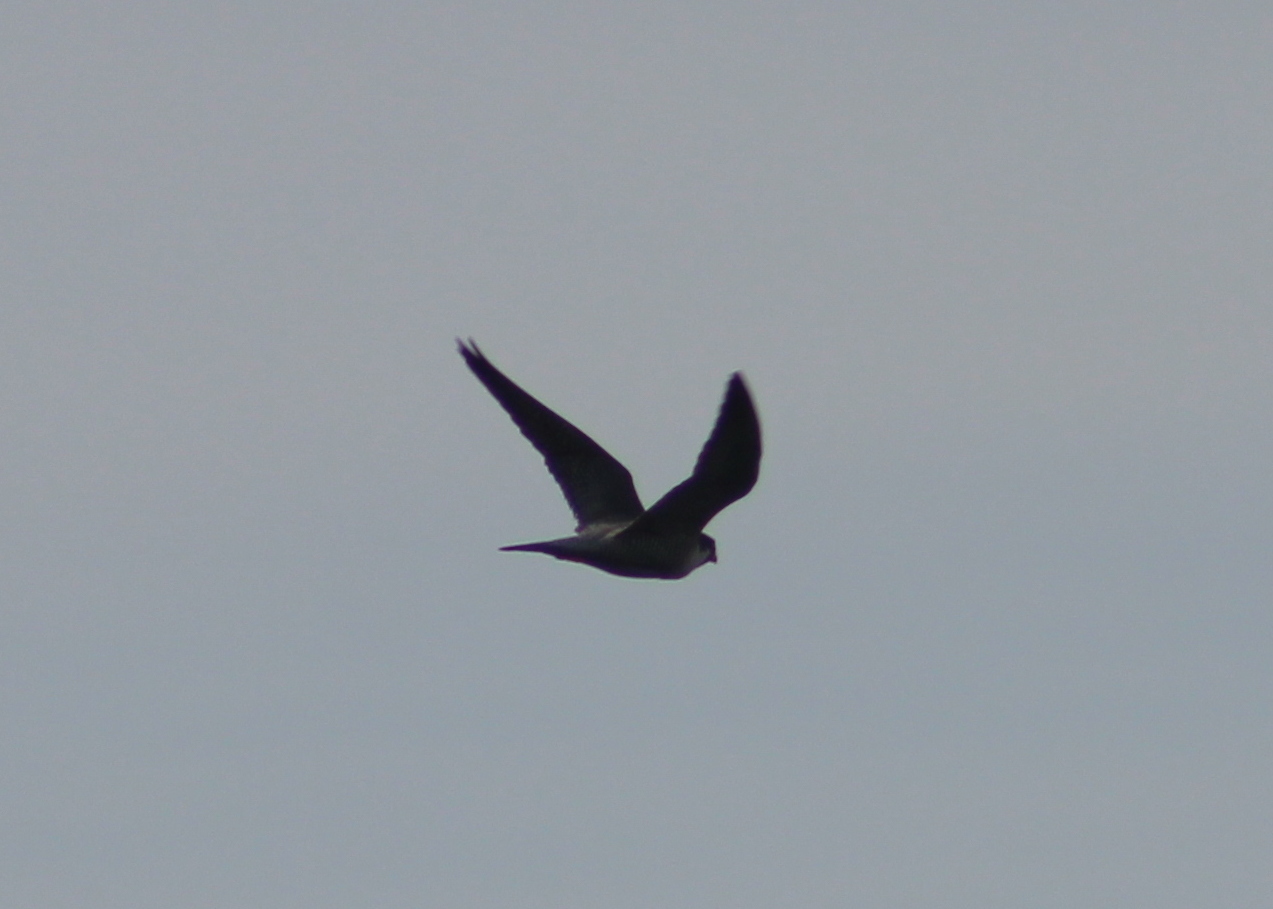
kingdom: Animalia
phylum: Chordata
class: Aves
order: Falconiformes
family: Falconidae
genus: Falco
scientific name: Falco peregrinus
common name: Peregrine falcon
